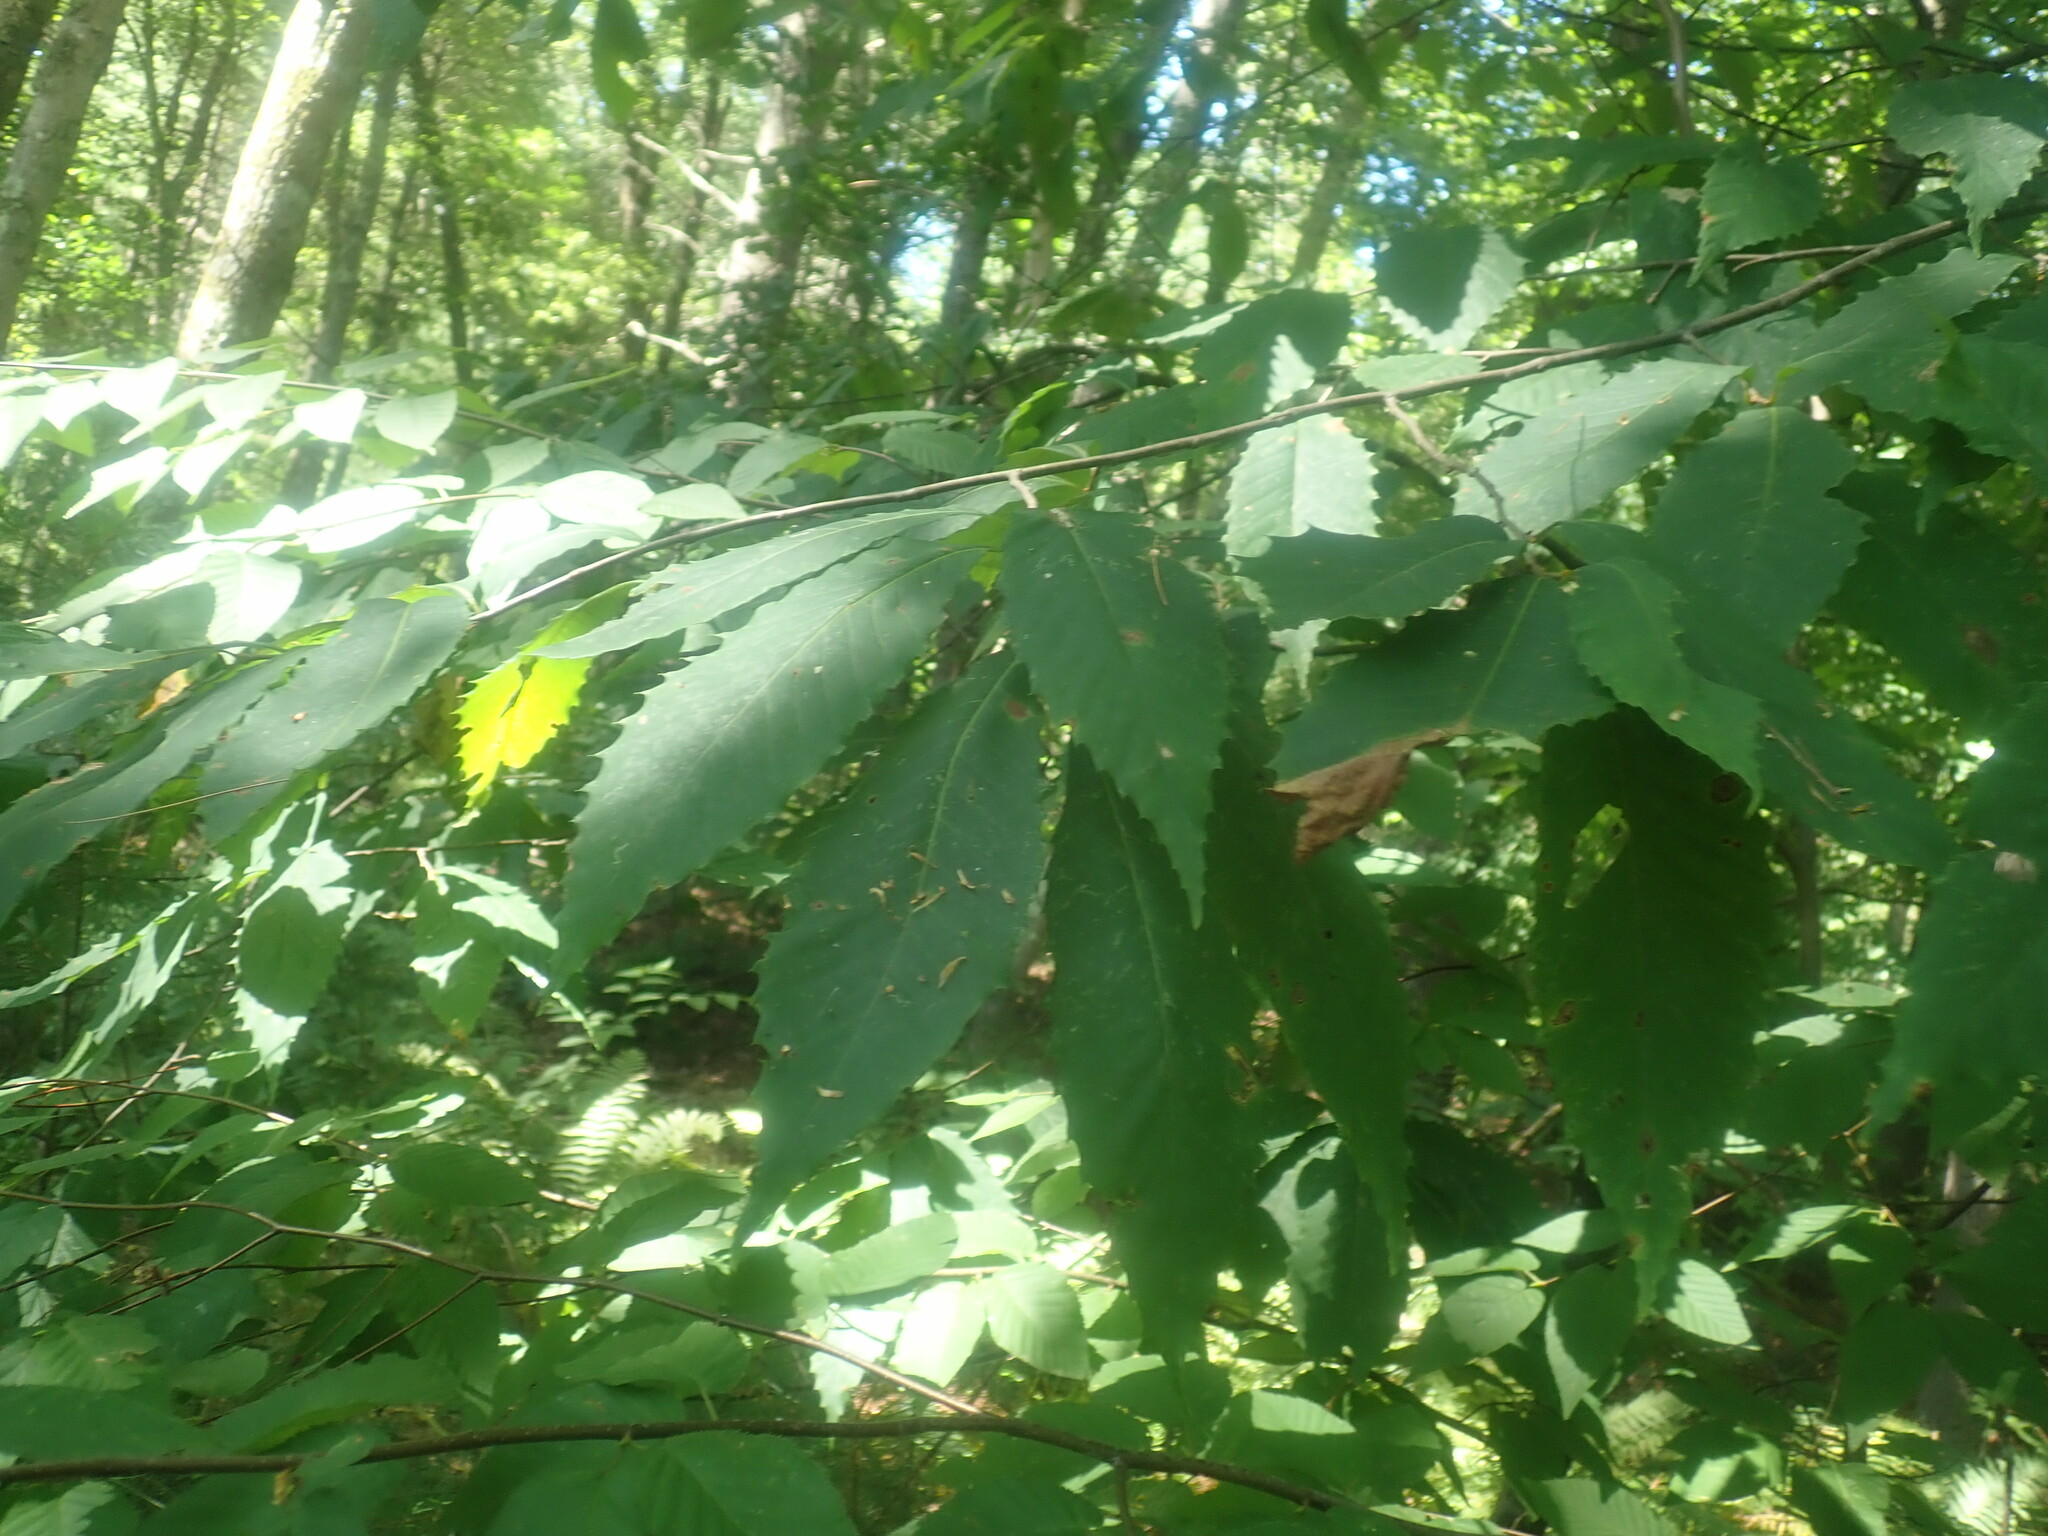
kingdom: Plantae
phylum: Tracheophyta
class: Magnoliopsida
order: Fagales
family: Fagaceae
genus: Castanea
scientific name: Castanea dentata
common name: American chestnut
